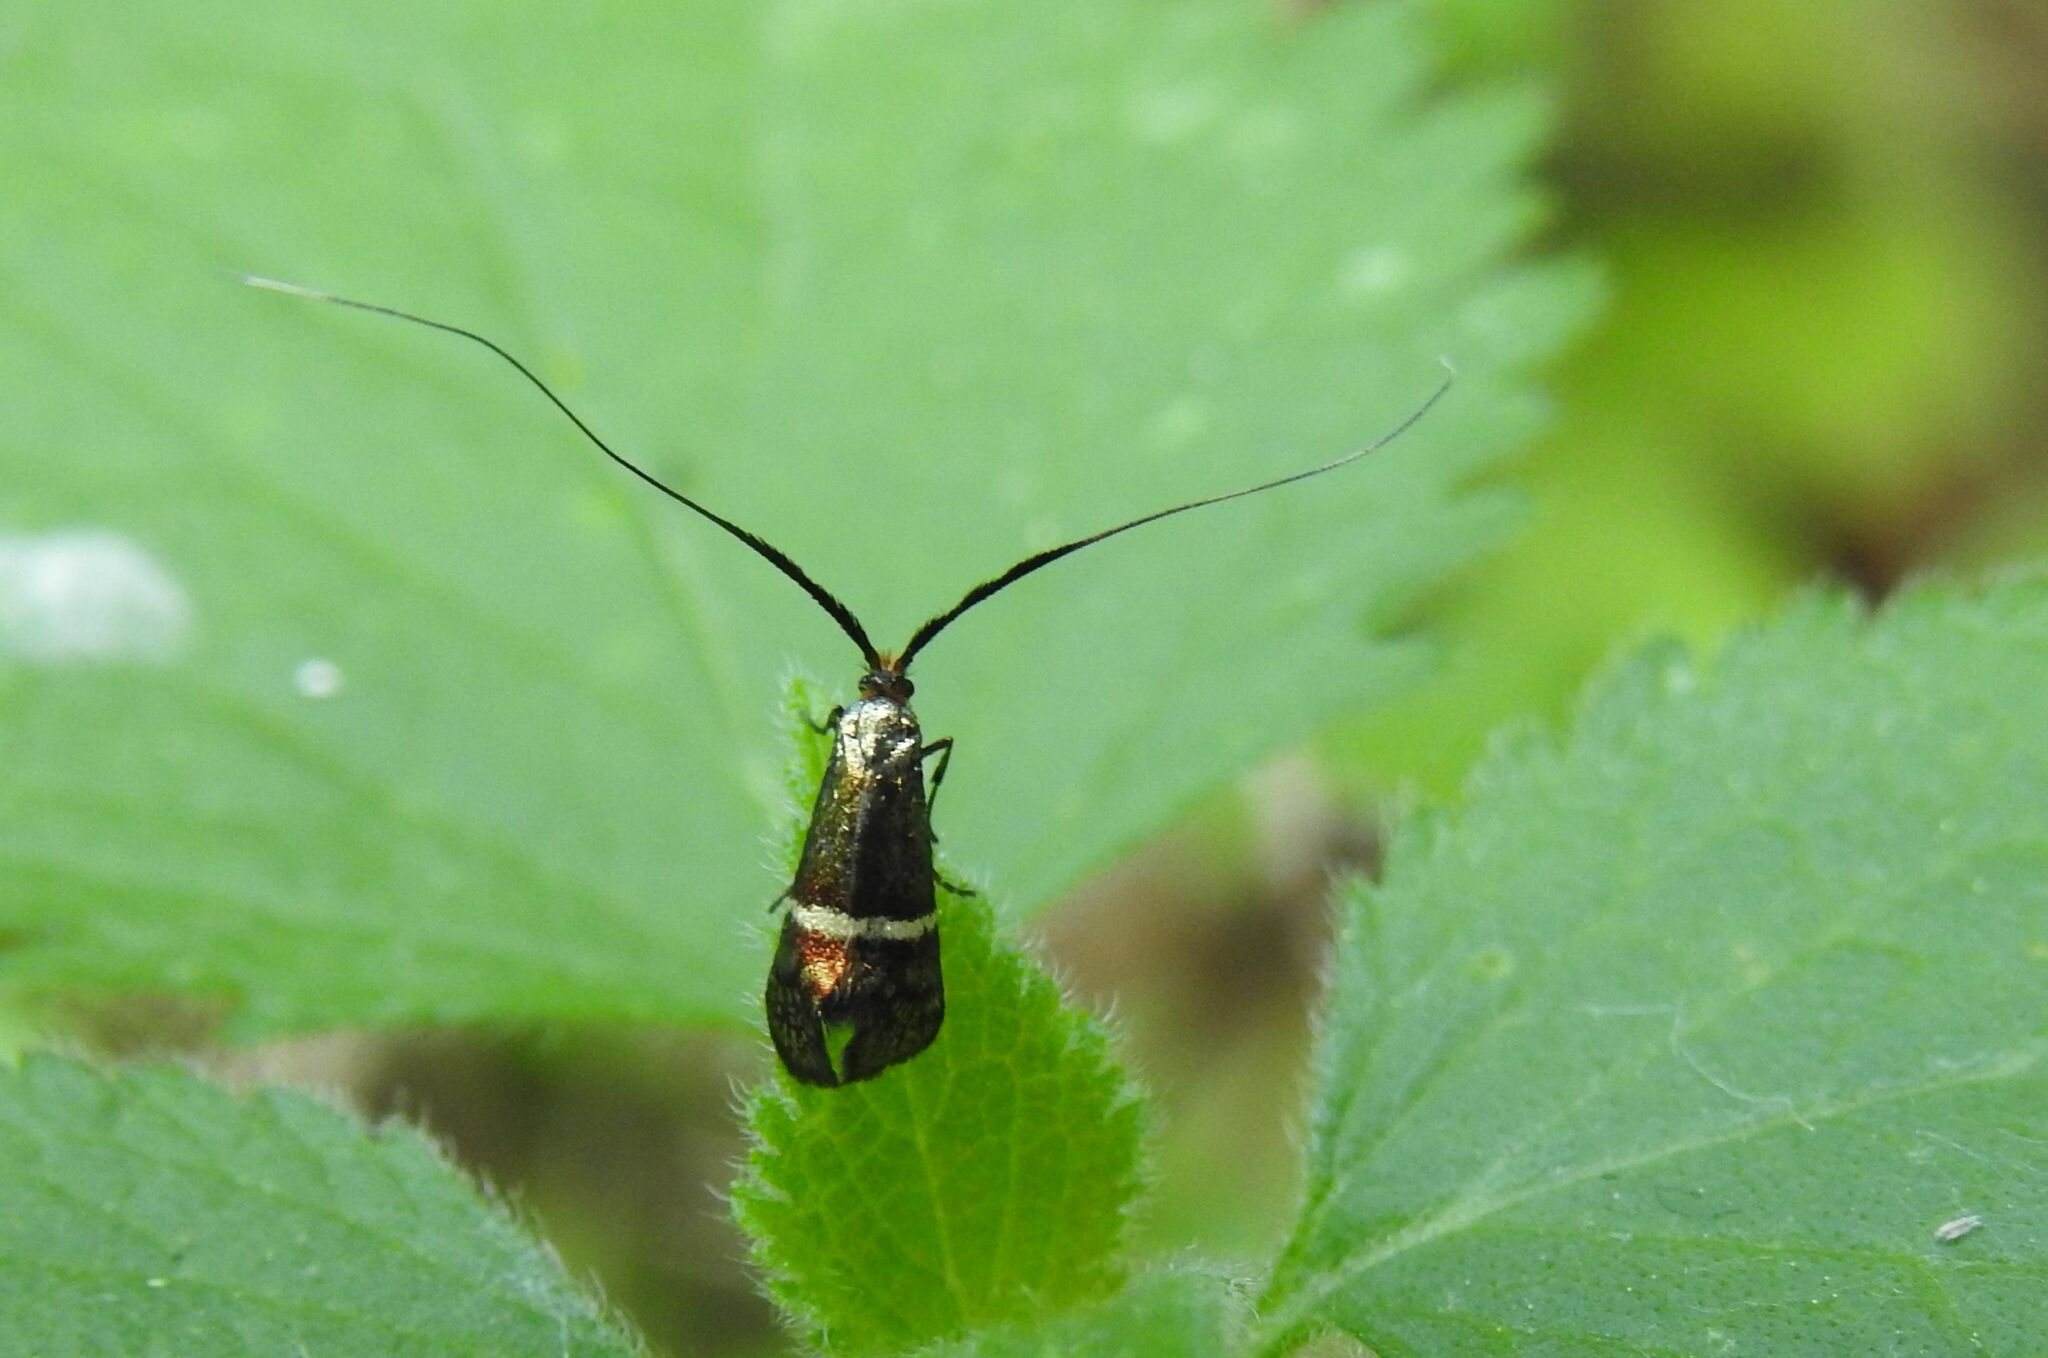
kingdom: Animalia
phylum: Arthropoda
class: Insecta
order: Lepidoptera
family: Adelidae
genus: Adela
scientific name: Adela australis
